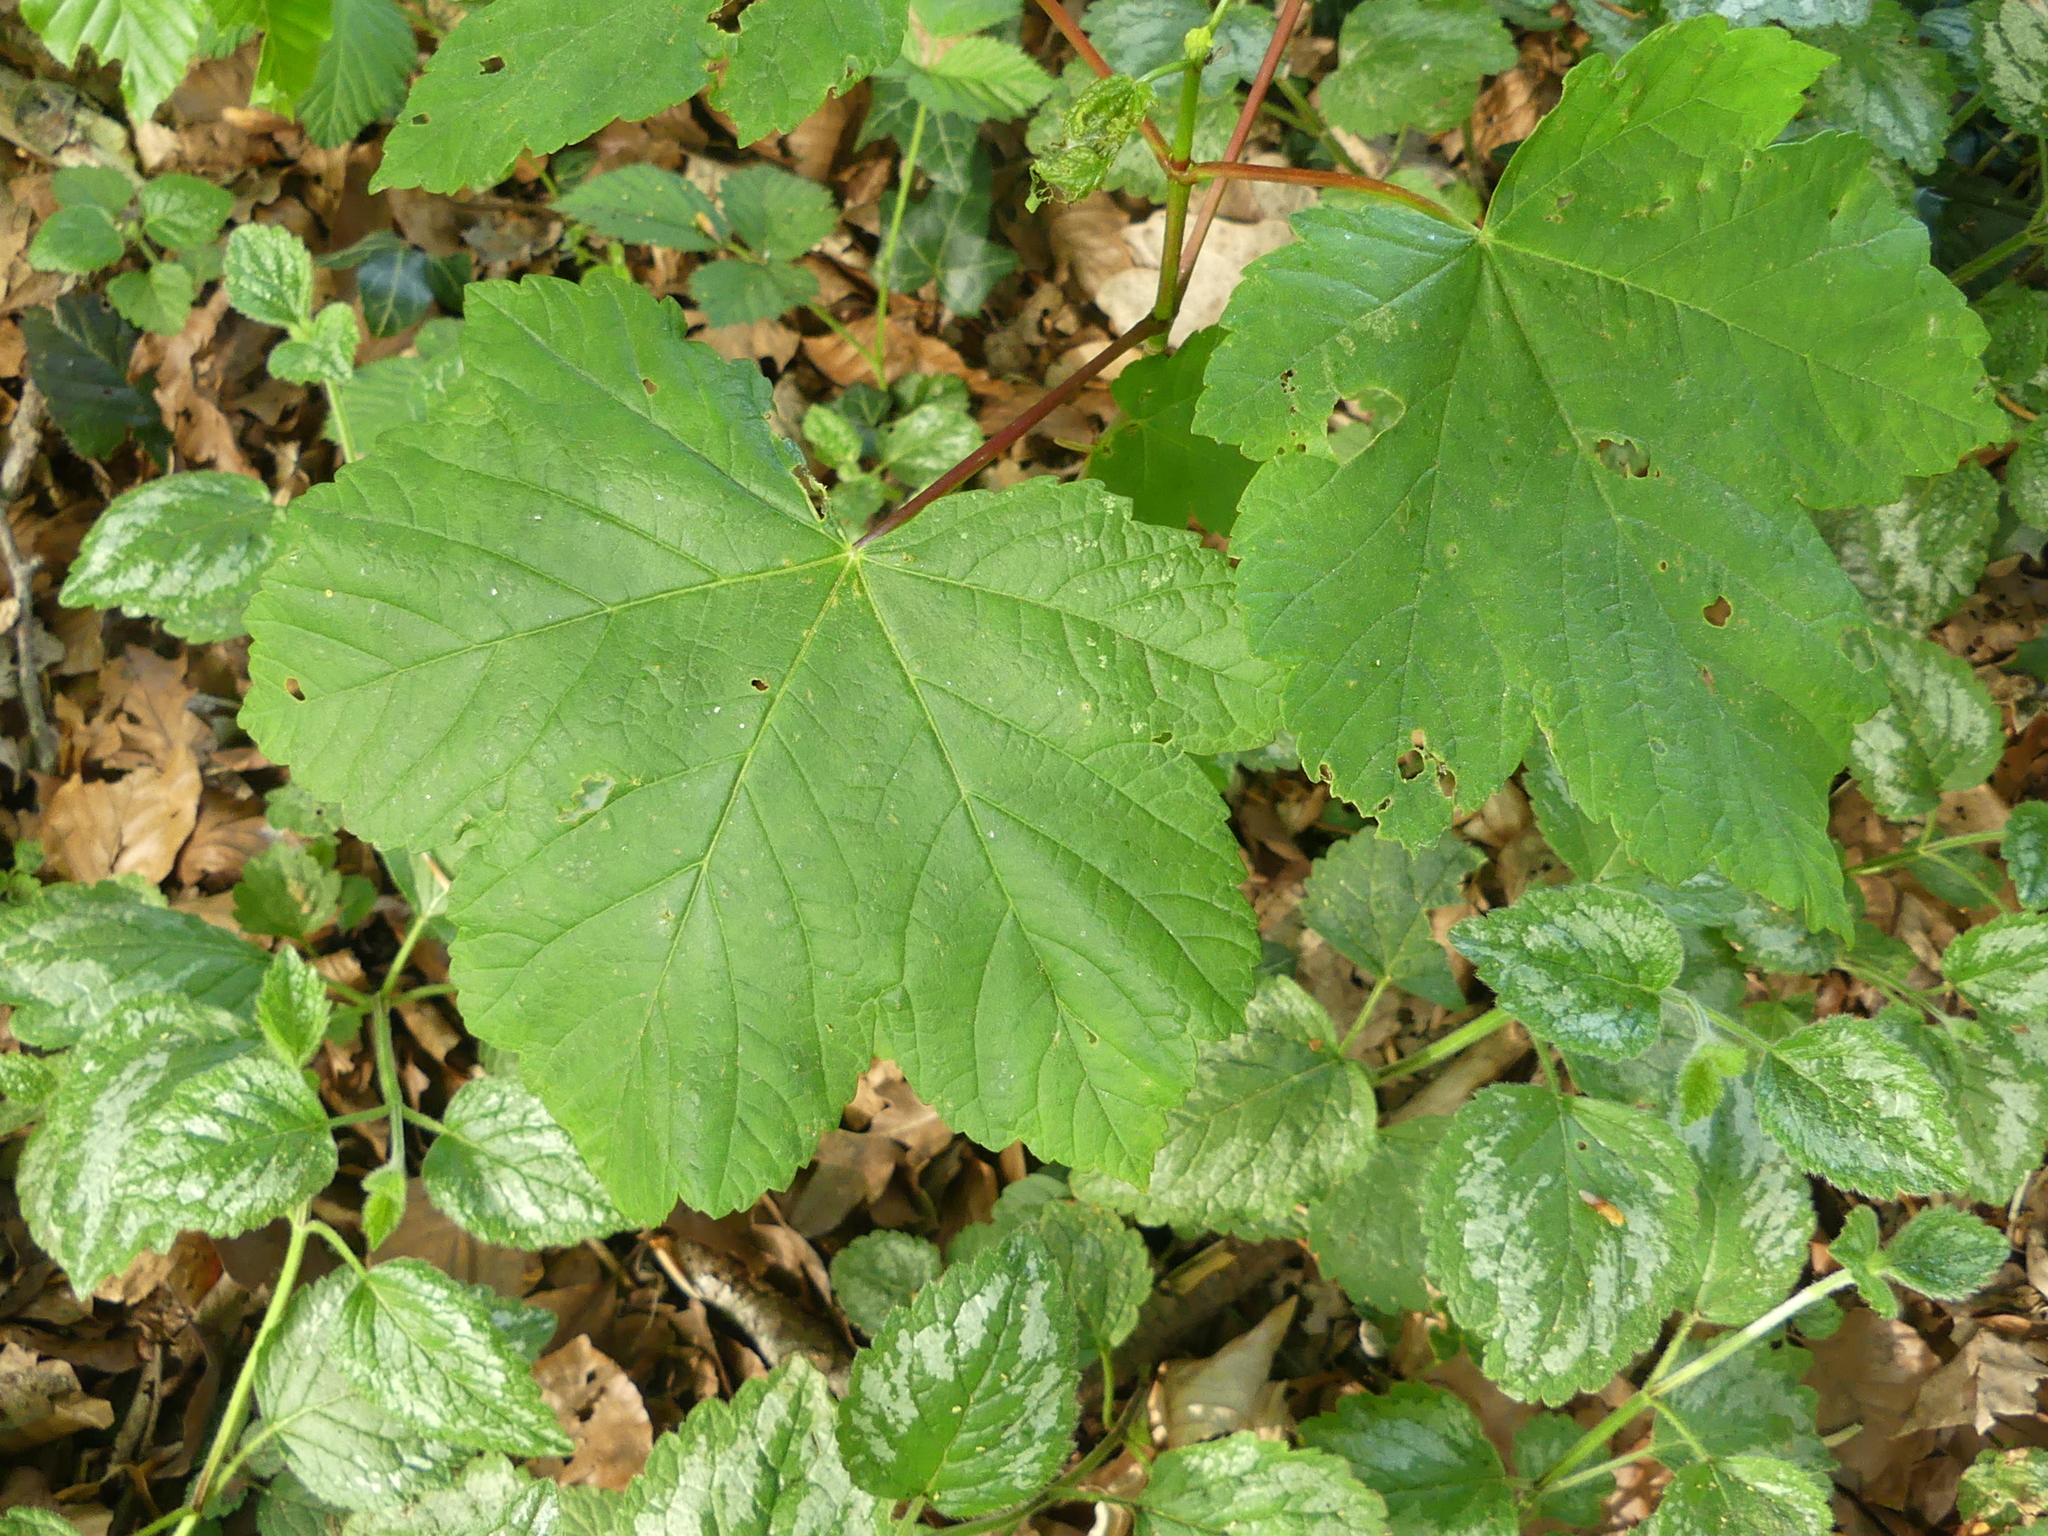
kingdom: Plantae
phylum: Tracheophyta
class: Magnoliopsida
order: Sapindales
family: Sapindaceae
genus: Acer
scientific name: Acer pseudoplatanus
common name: Sycamore
